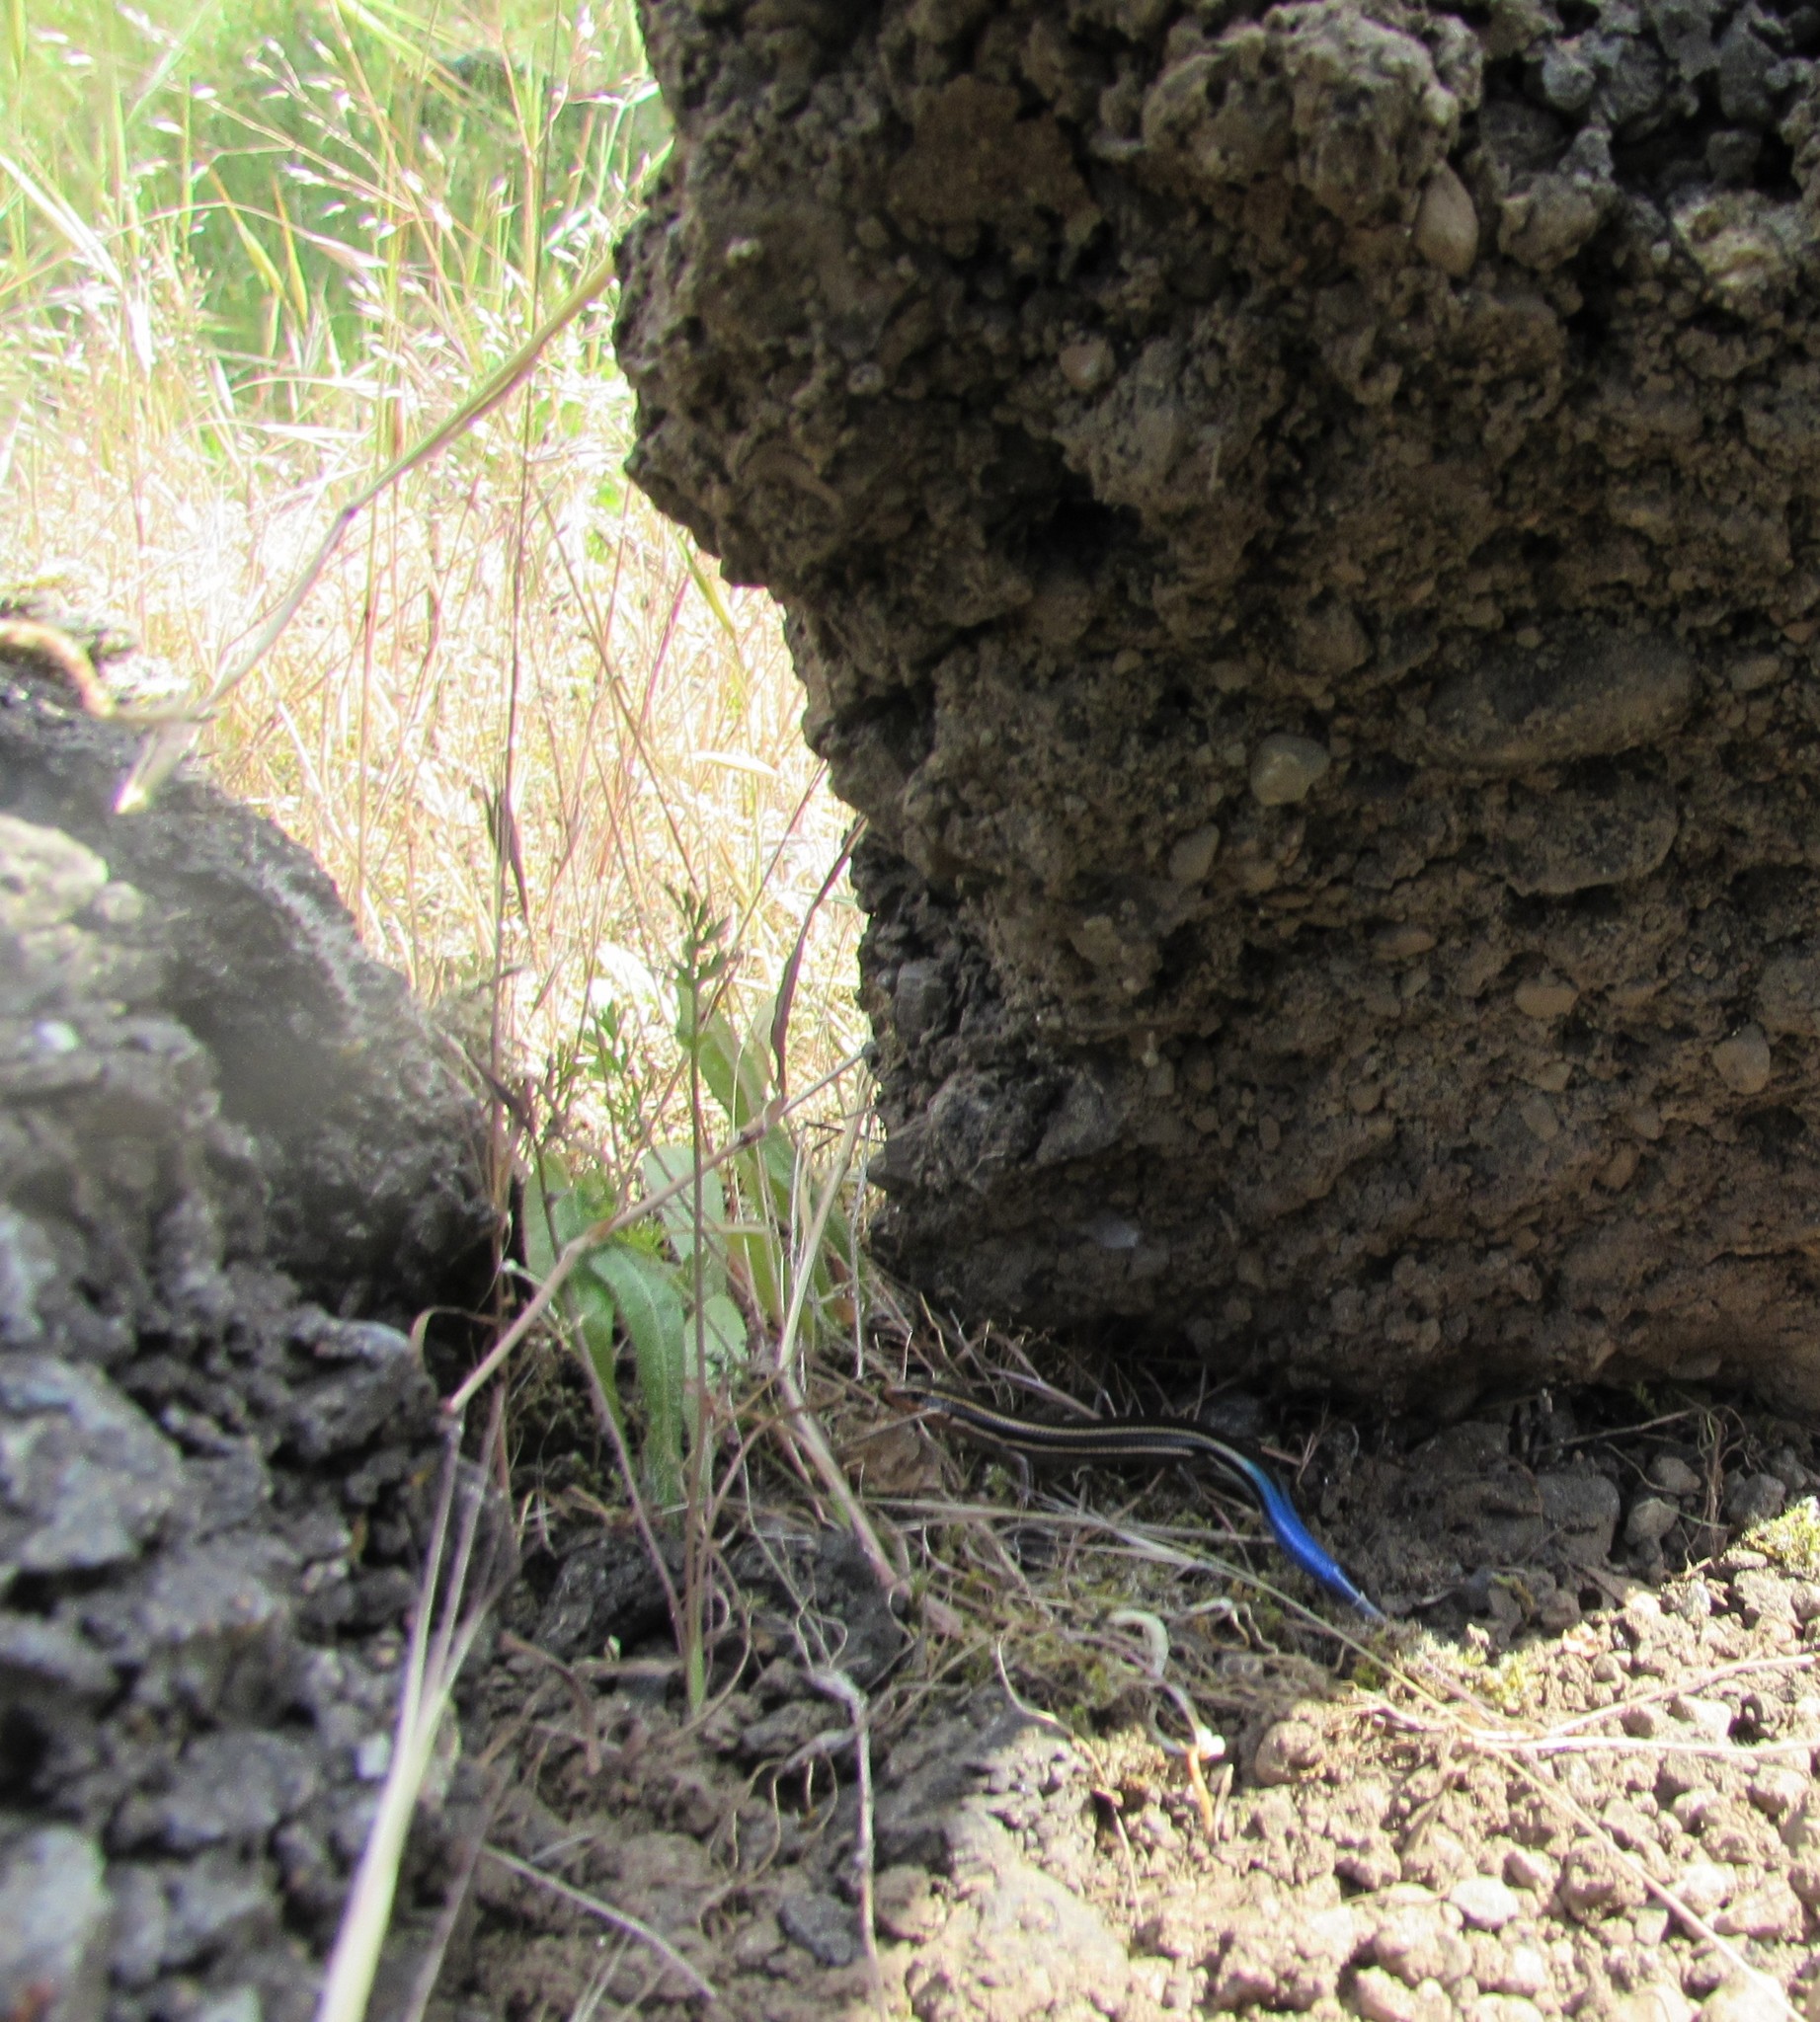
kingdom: Animalia
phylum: Chordata
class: Squamata
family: Scincidae
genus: Plestiodon
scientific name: Plestiodon skiltonianus
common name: Coronado island skink [interparietalis]
